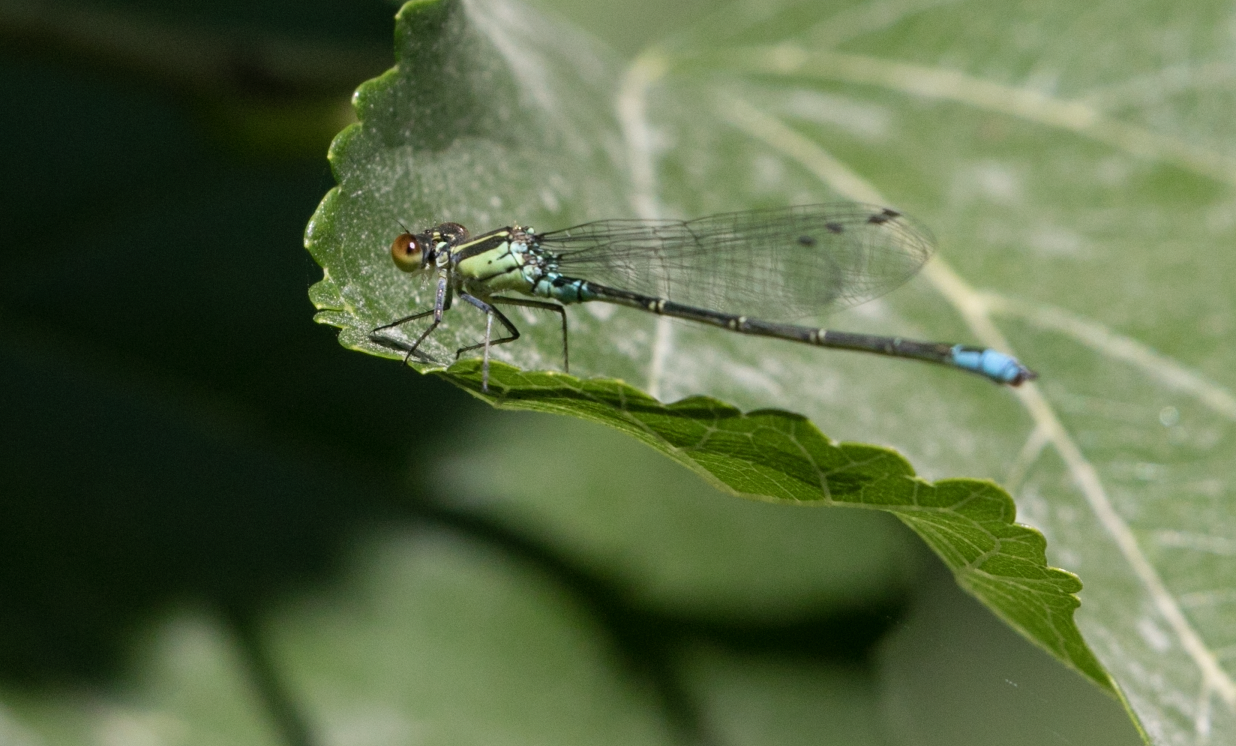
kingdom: Animalia
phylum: Arthropoda
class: Insecta
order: Odonata
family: Coenagrionidae
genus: Erythromma
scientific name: Erythromma viridulum
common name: Small red-eyed damselfly
